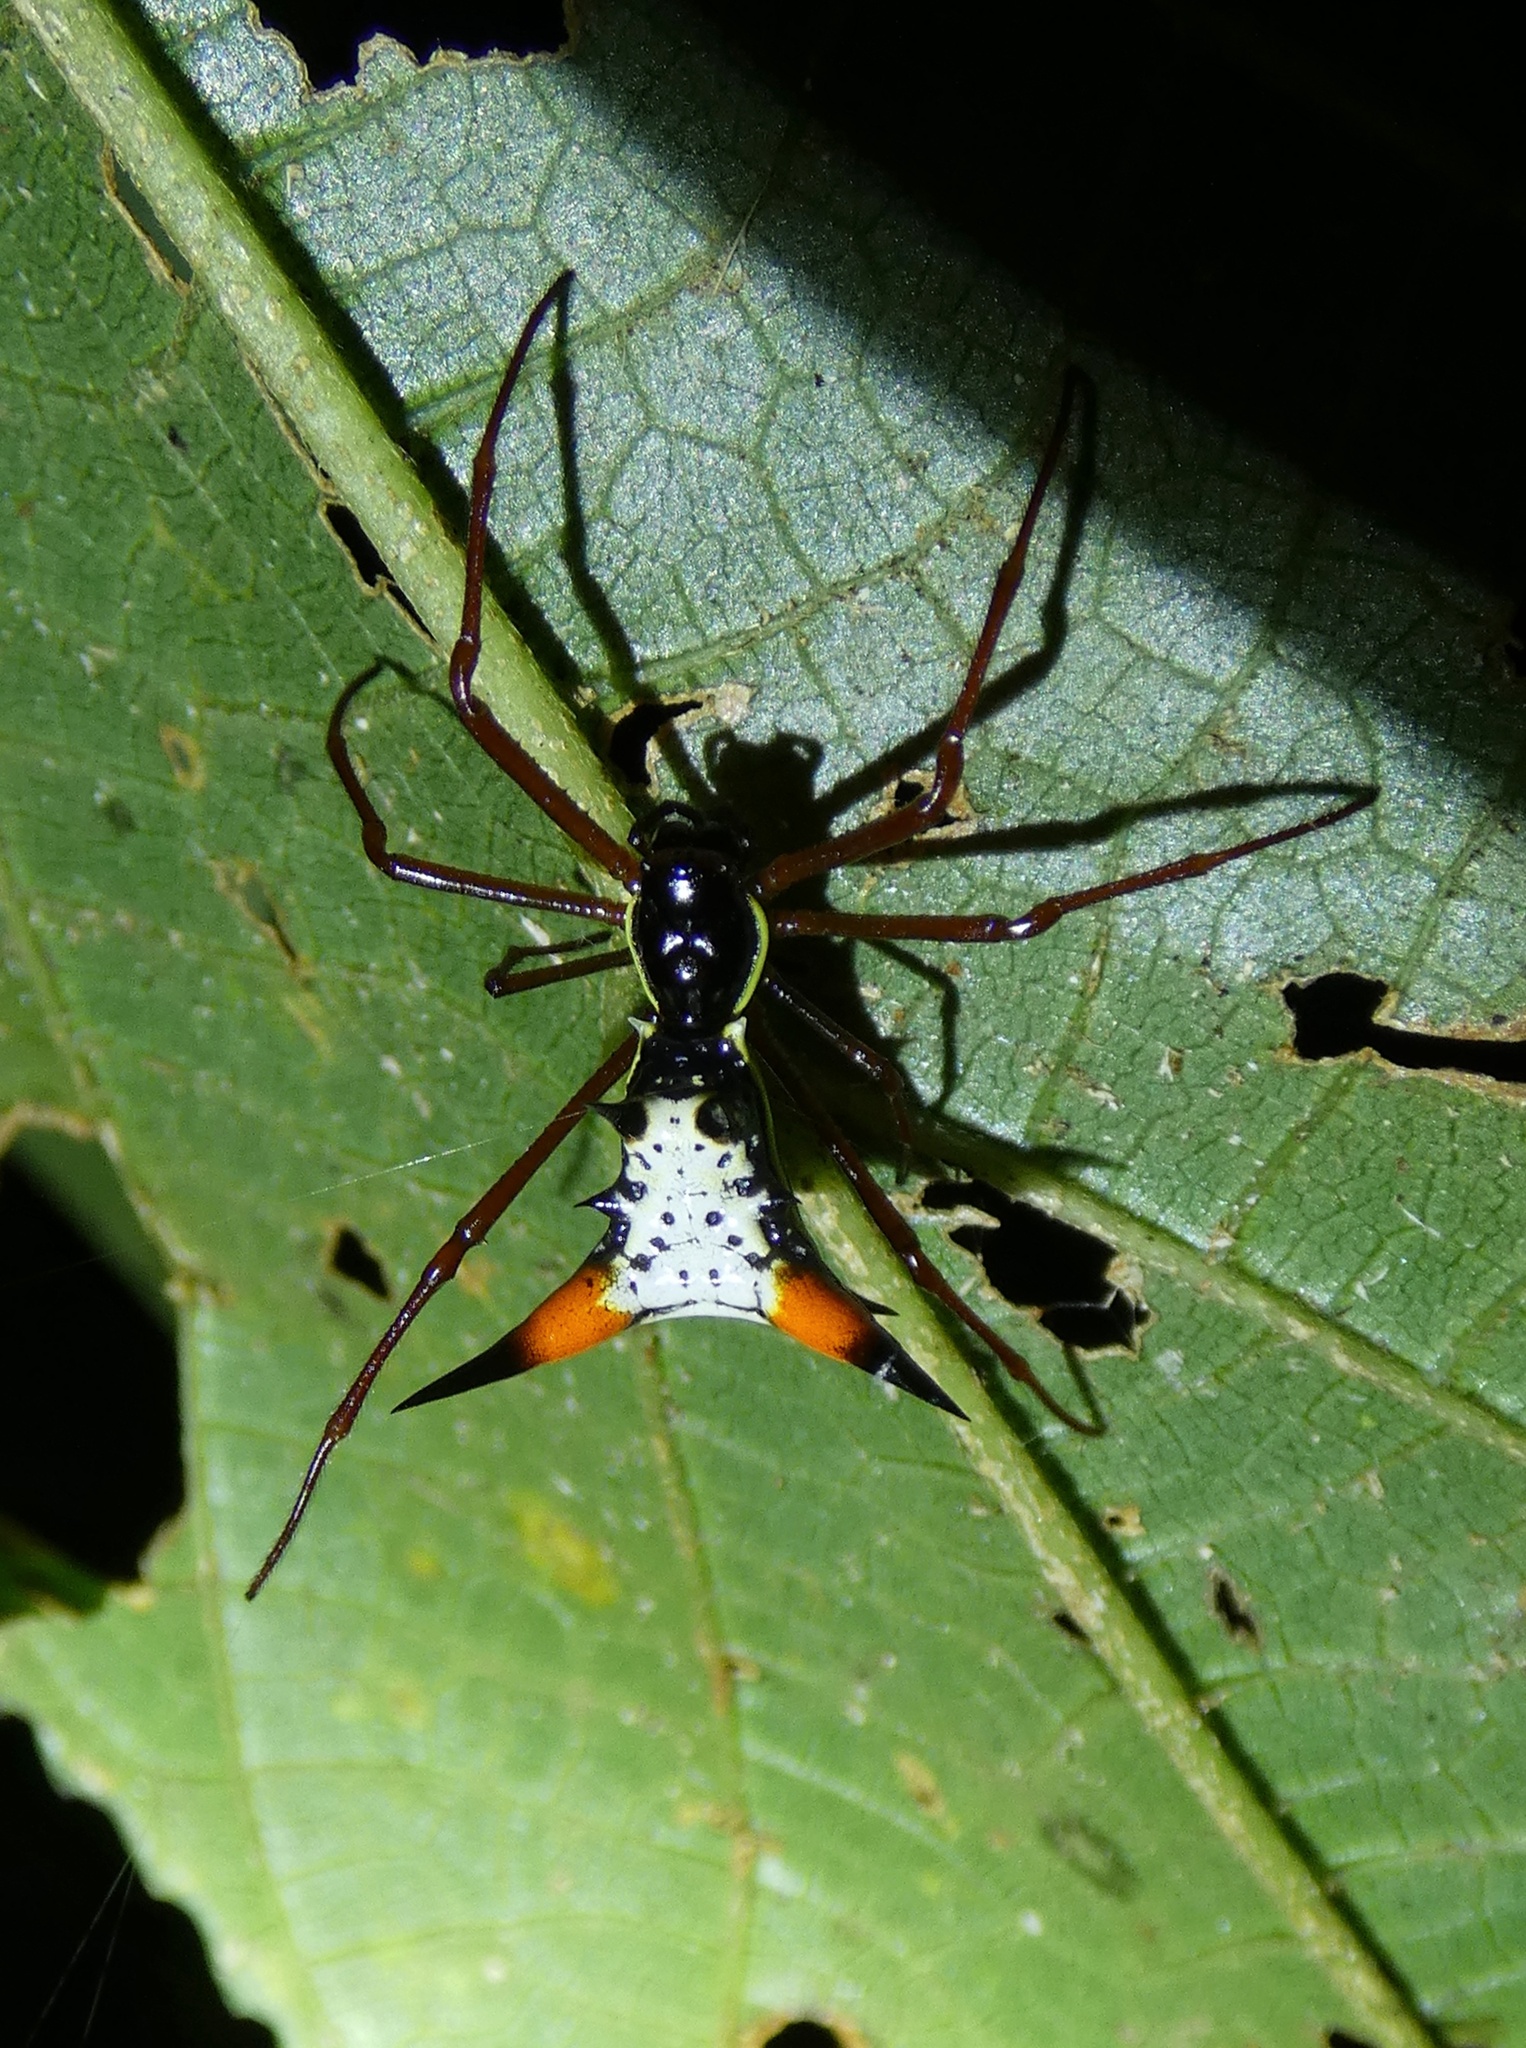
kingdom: Animalia
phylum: Arthropoda
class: Arachnida
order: Araneae
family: Araneidae
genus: Micrathena
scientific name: Micrathena schreibersi
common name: Orb weavers
